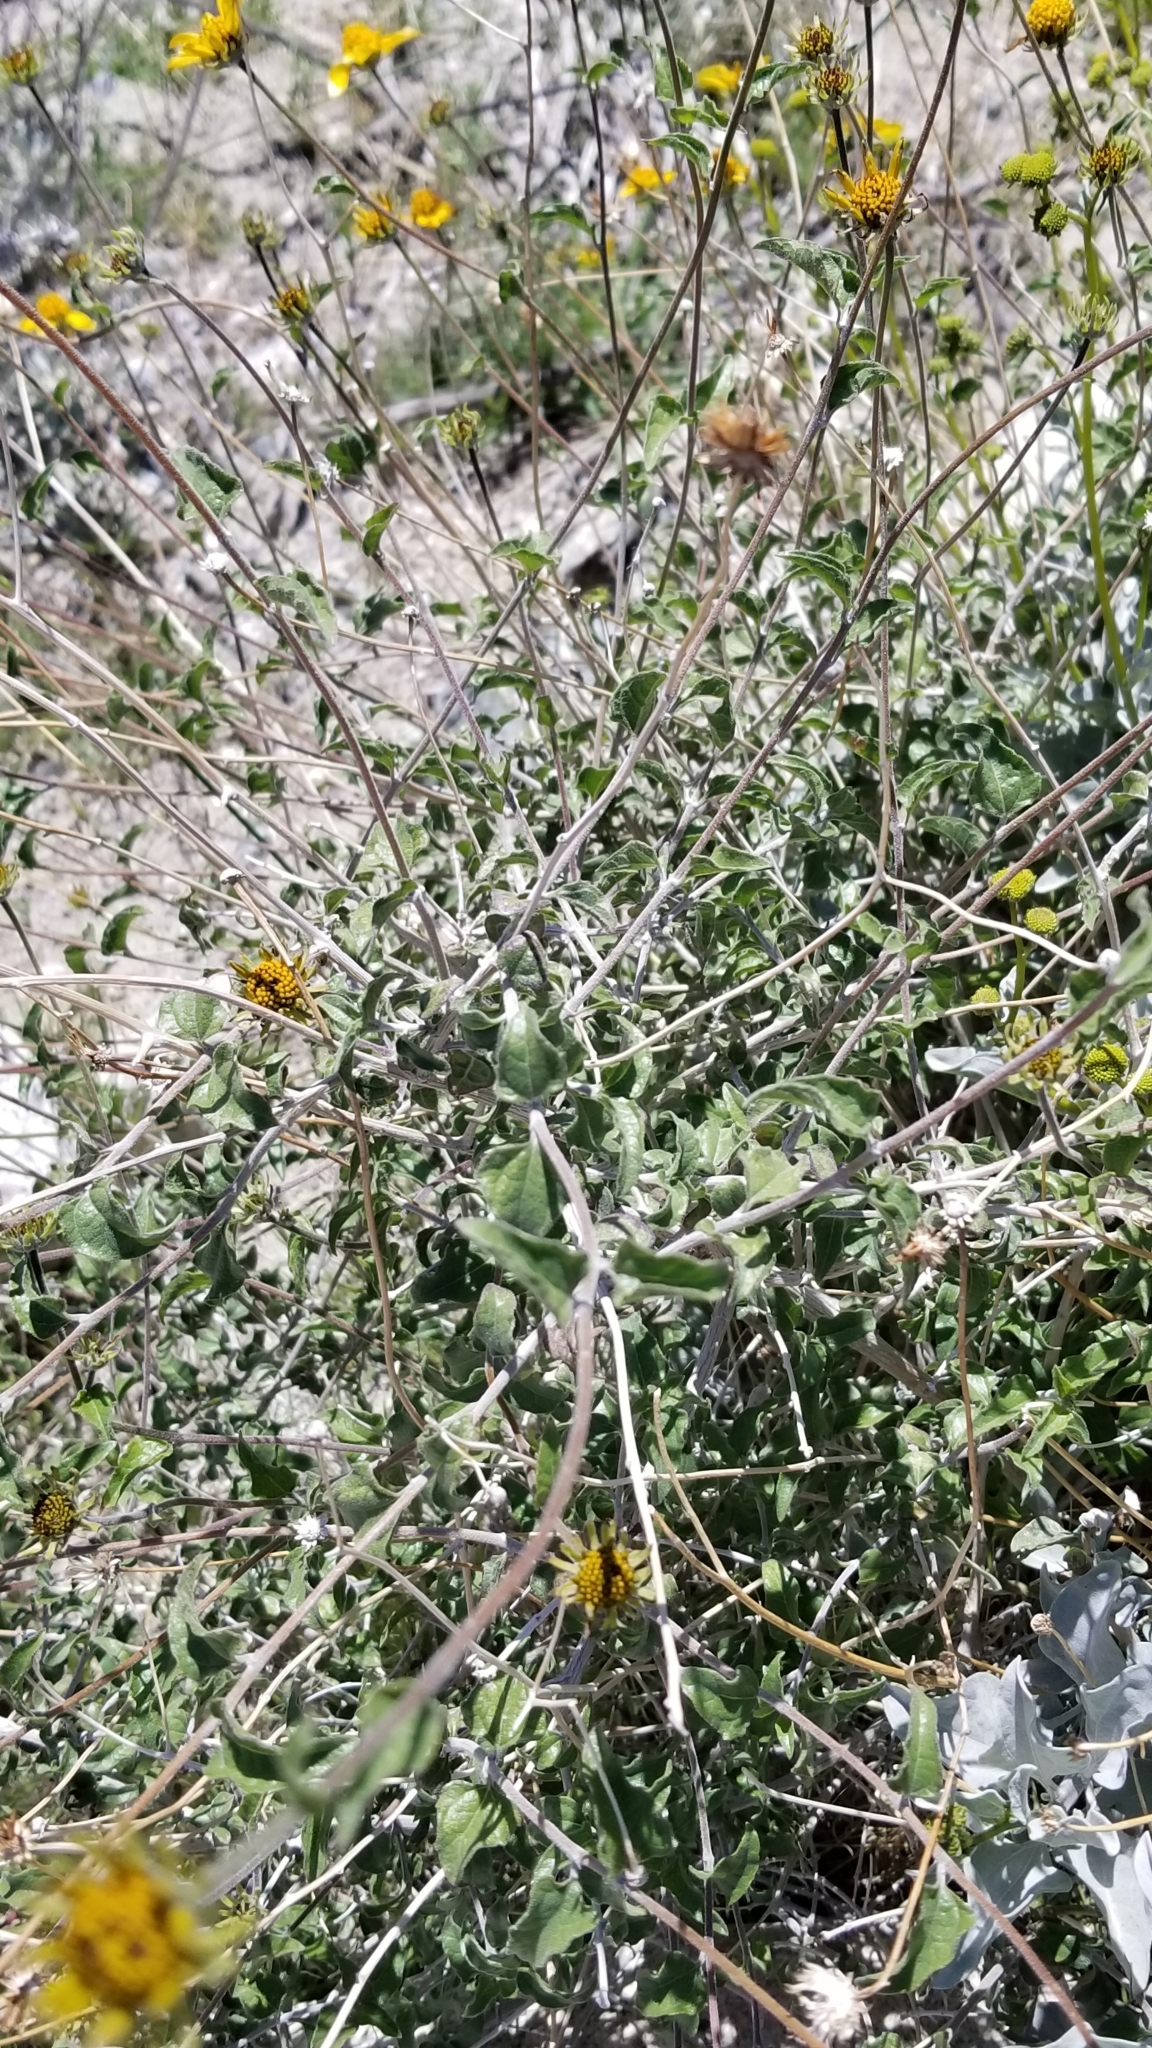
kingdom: Plantae
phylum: Tracheophyta
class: Magnoliopsida
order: Asterales
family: Asteraceae
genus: Bahiopsis
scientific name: Bahiopsis parishii
